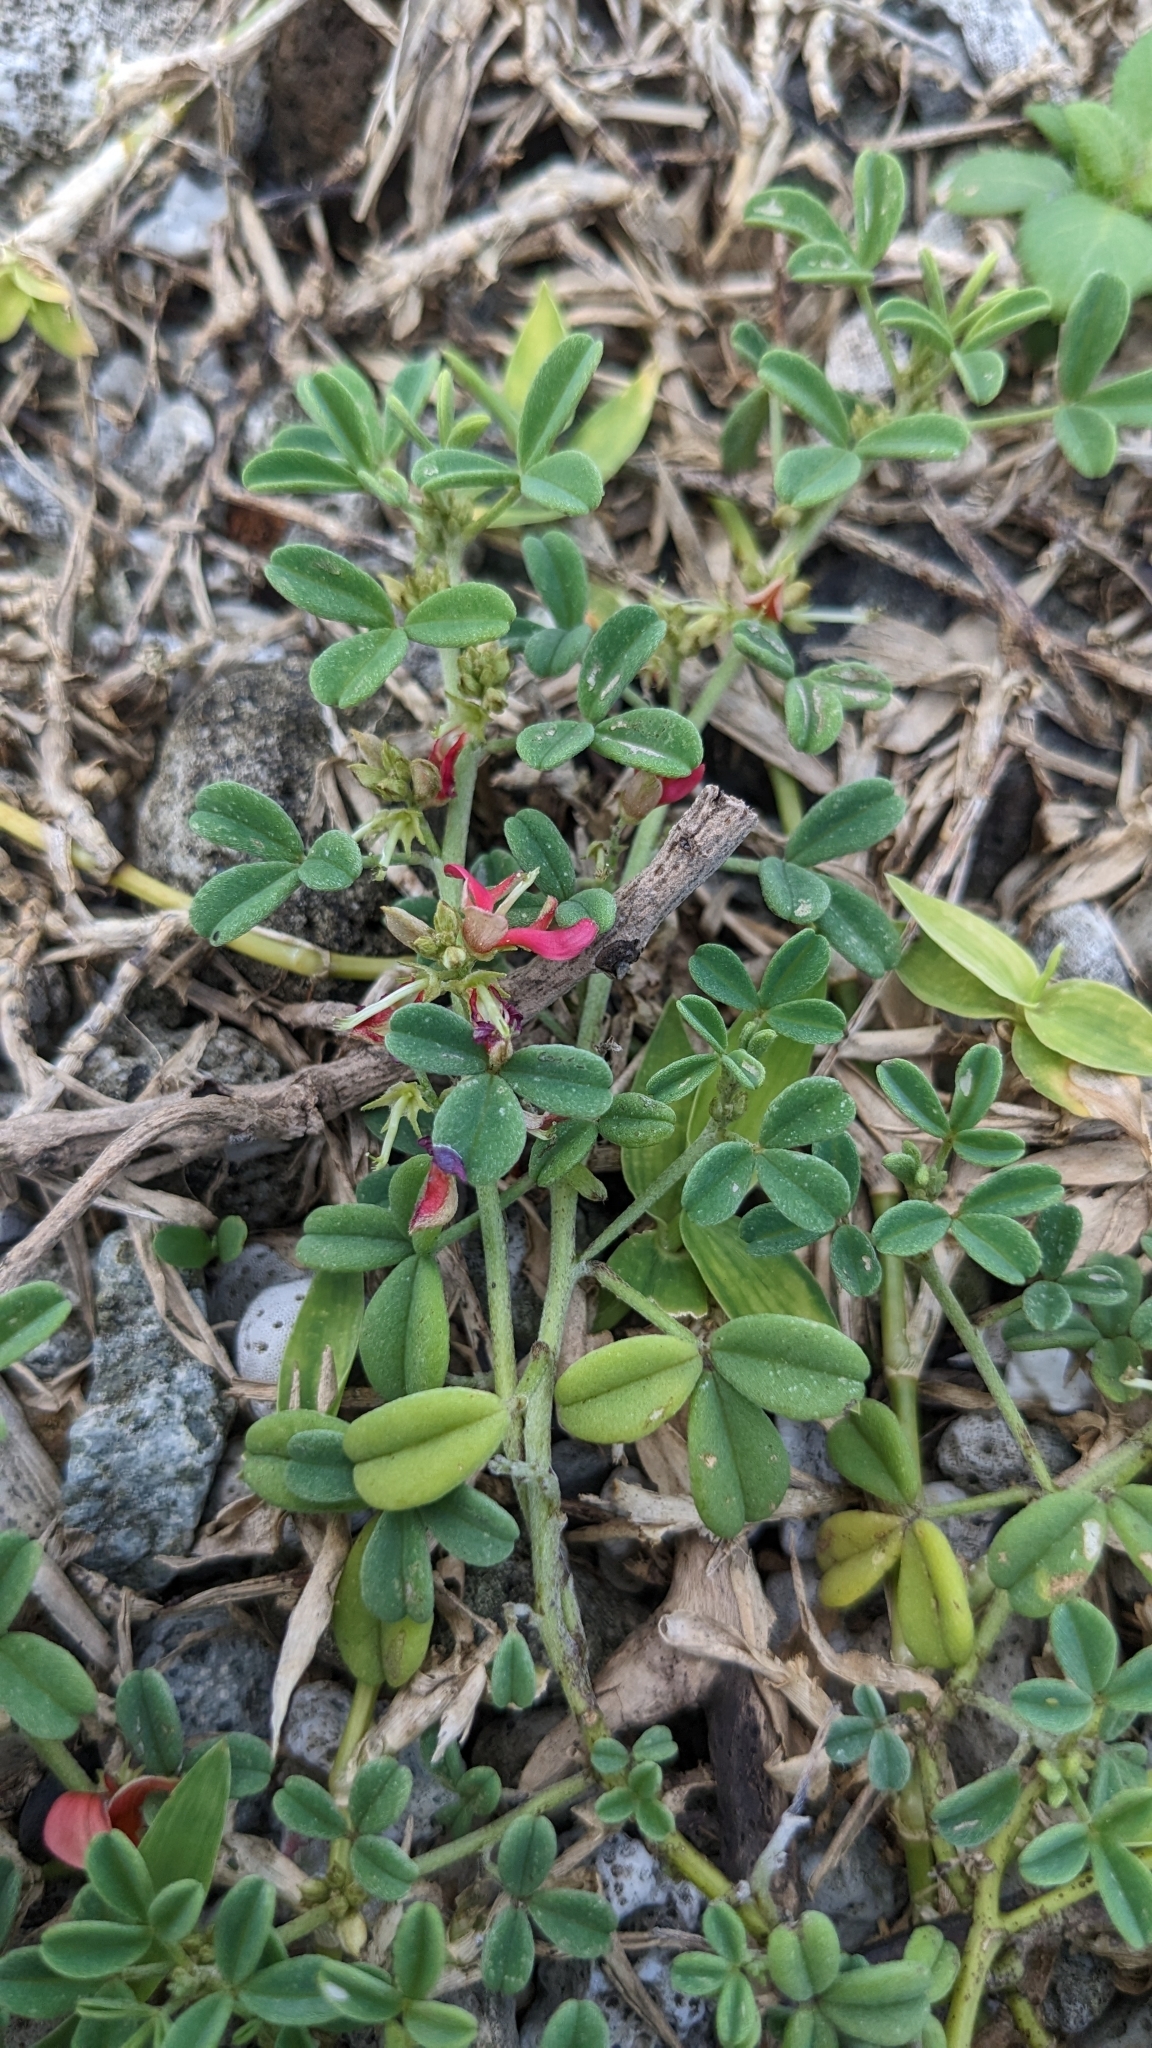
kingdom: Plantae
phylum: Tracheophyta
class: Magnoliopsida
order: Fabales
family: Fabaceae
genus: Indigofera
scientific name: Indigofera trifoliata
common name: Threeleaf indigo
